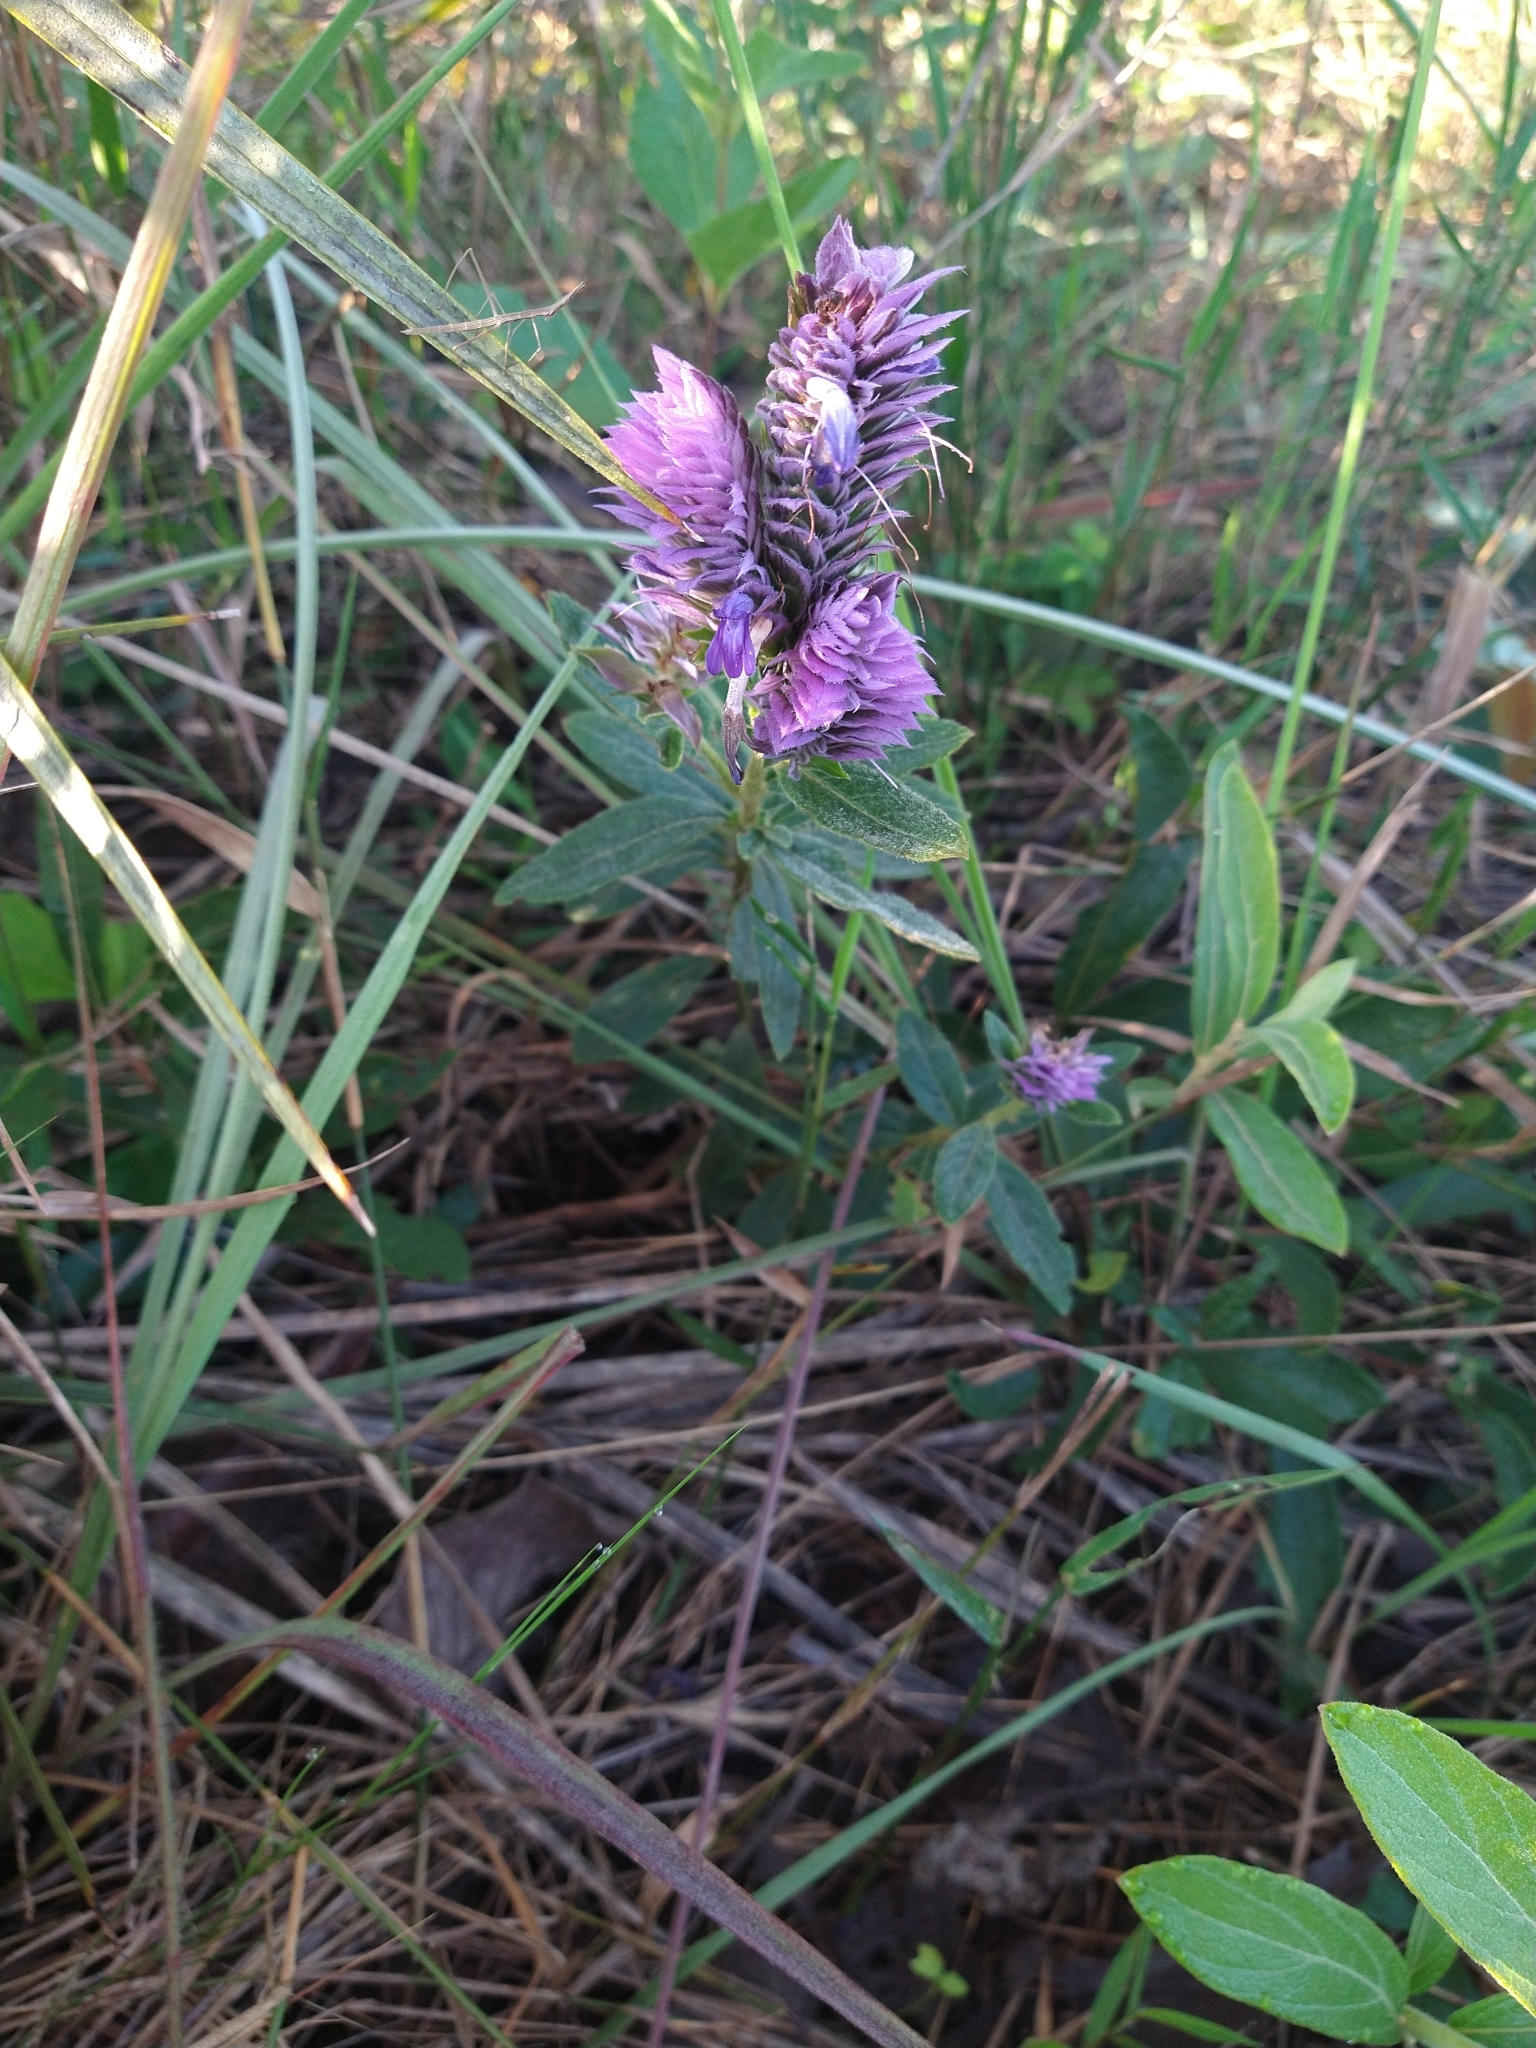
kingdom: Plantae
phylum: Tracheophyta
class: Magnoliopsida
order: Lamiales
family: Acanthaceae
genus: Lepidagathis
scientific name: Lepidagathis cyanea
